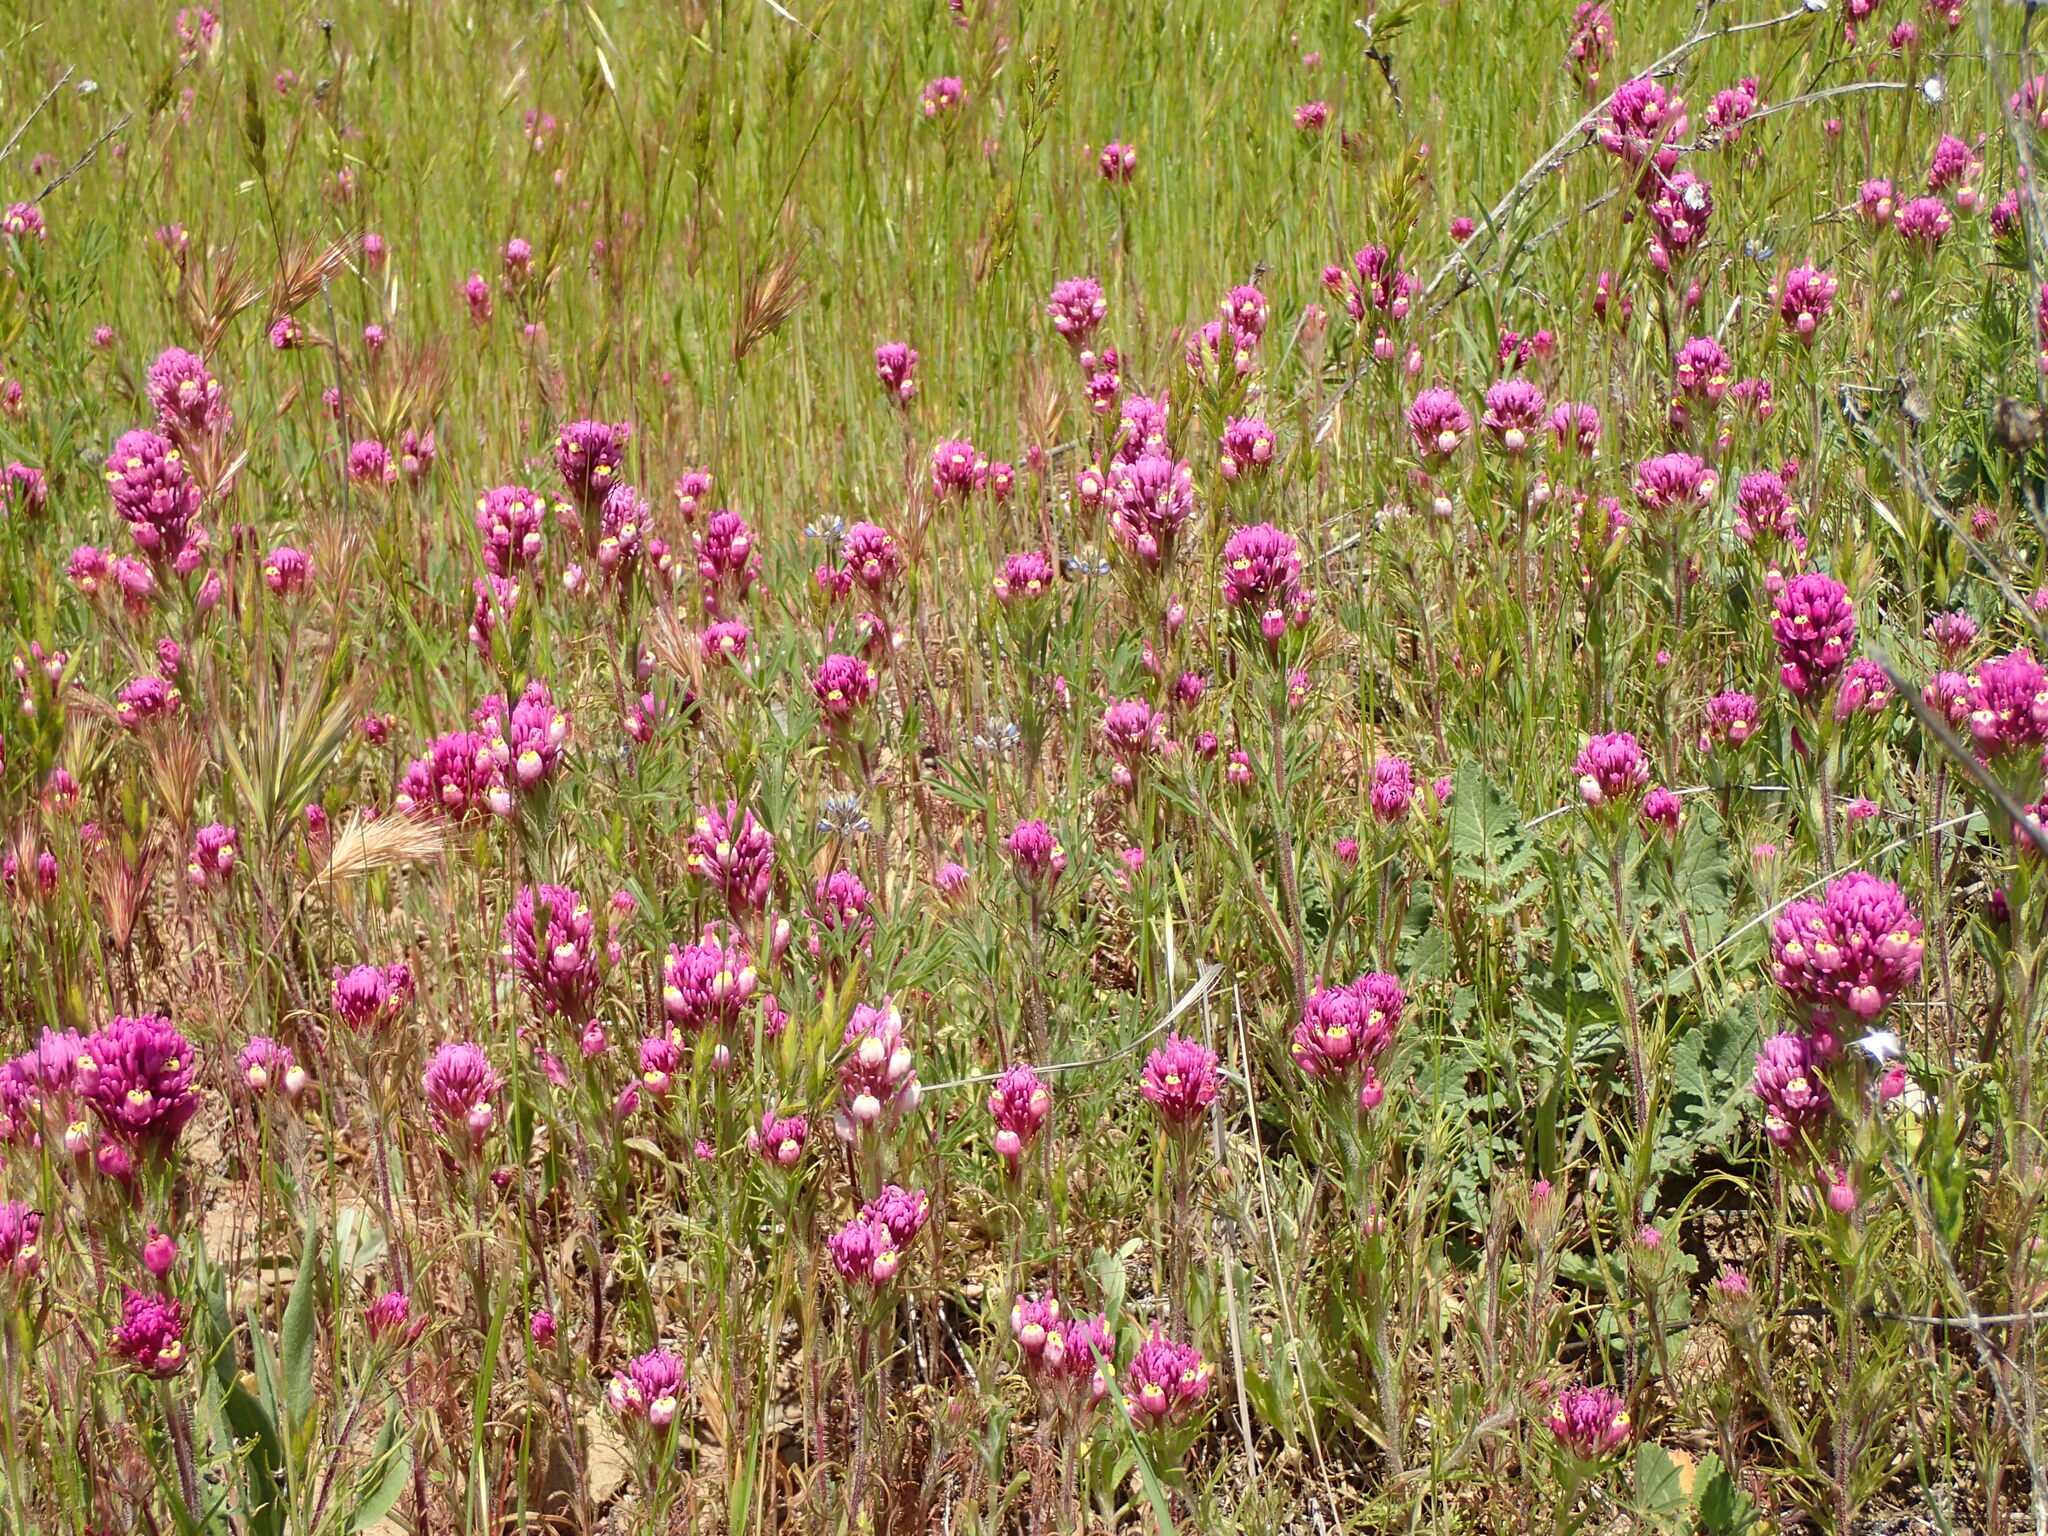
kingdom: Plantae
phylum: Tracheophyta
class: Magnoliopsida
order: Lamiales
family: Orobanchaceae
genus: Castilleja
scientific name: Castilleja exserta
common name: Purple owl-clover
